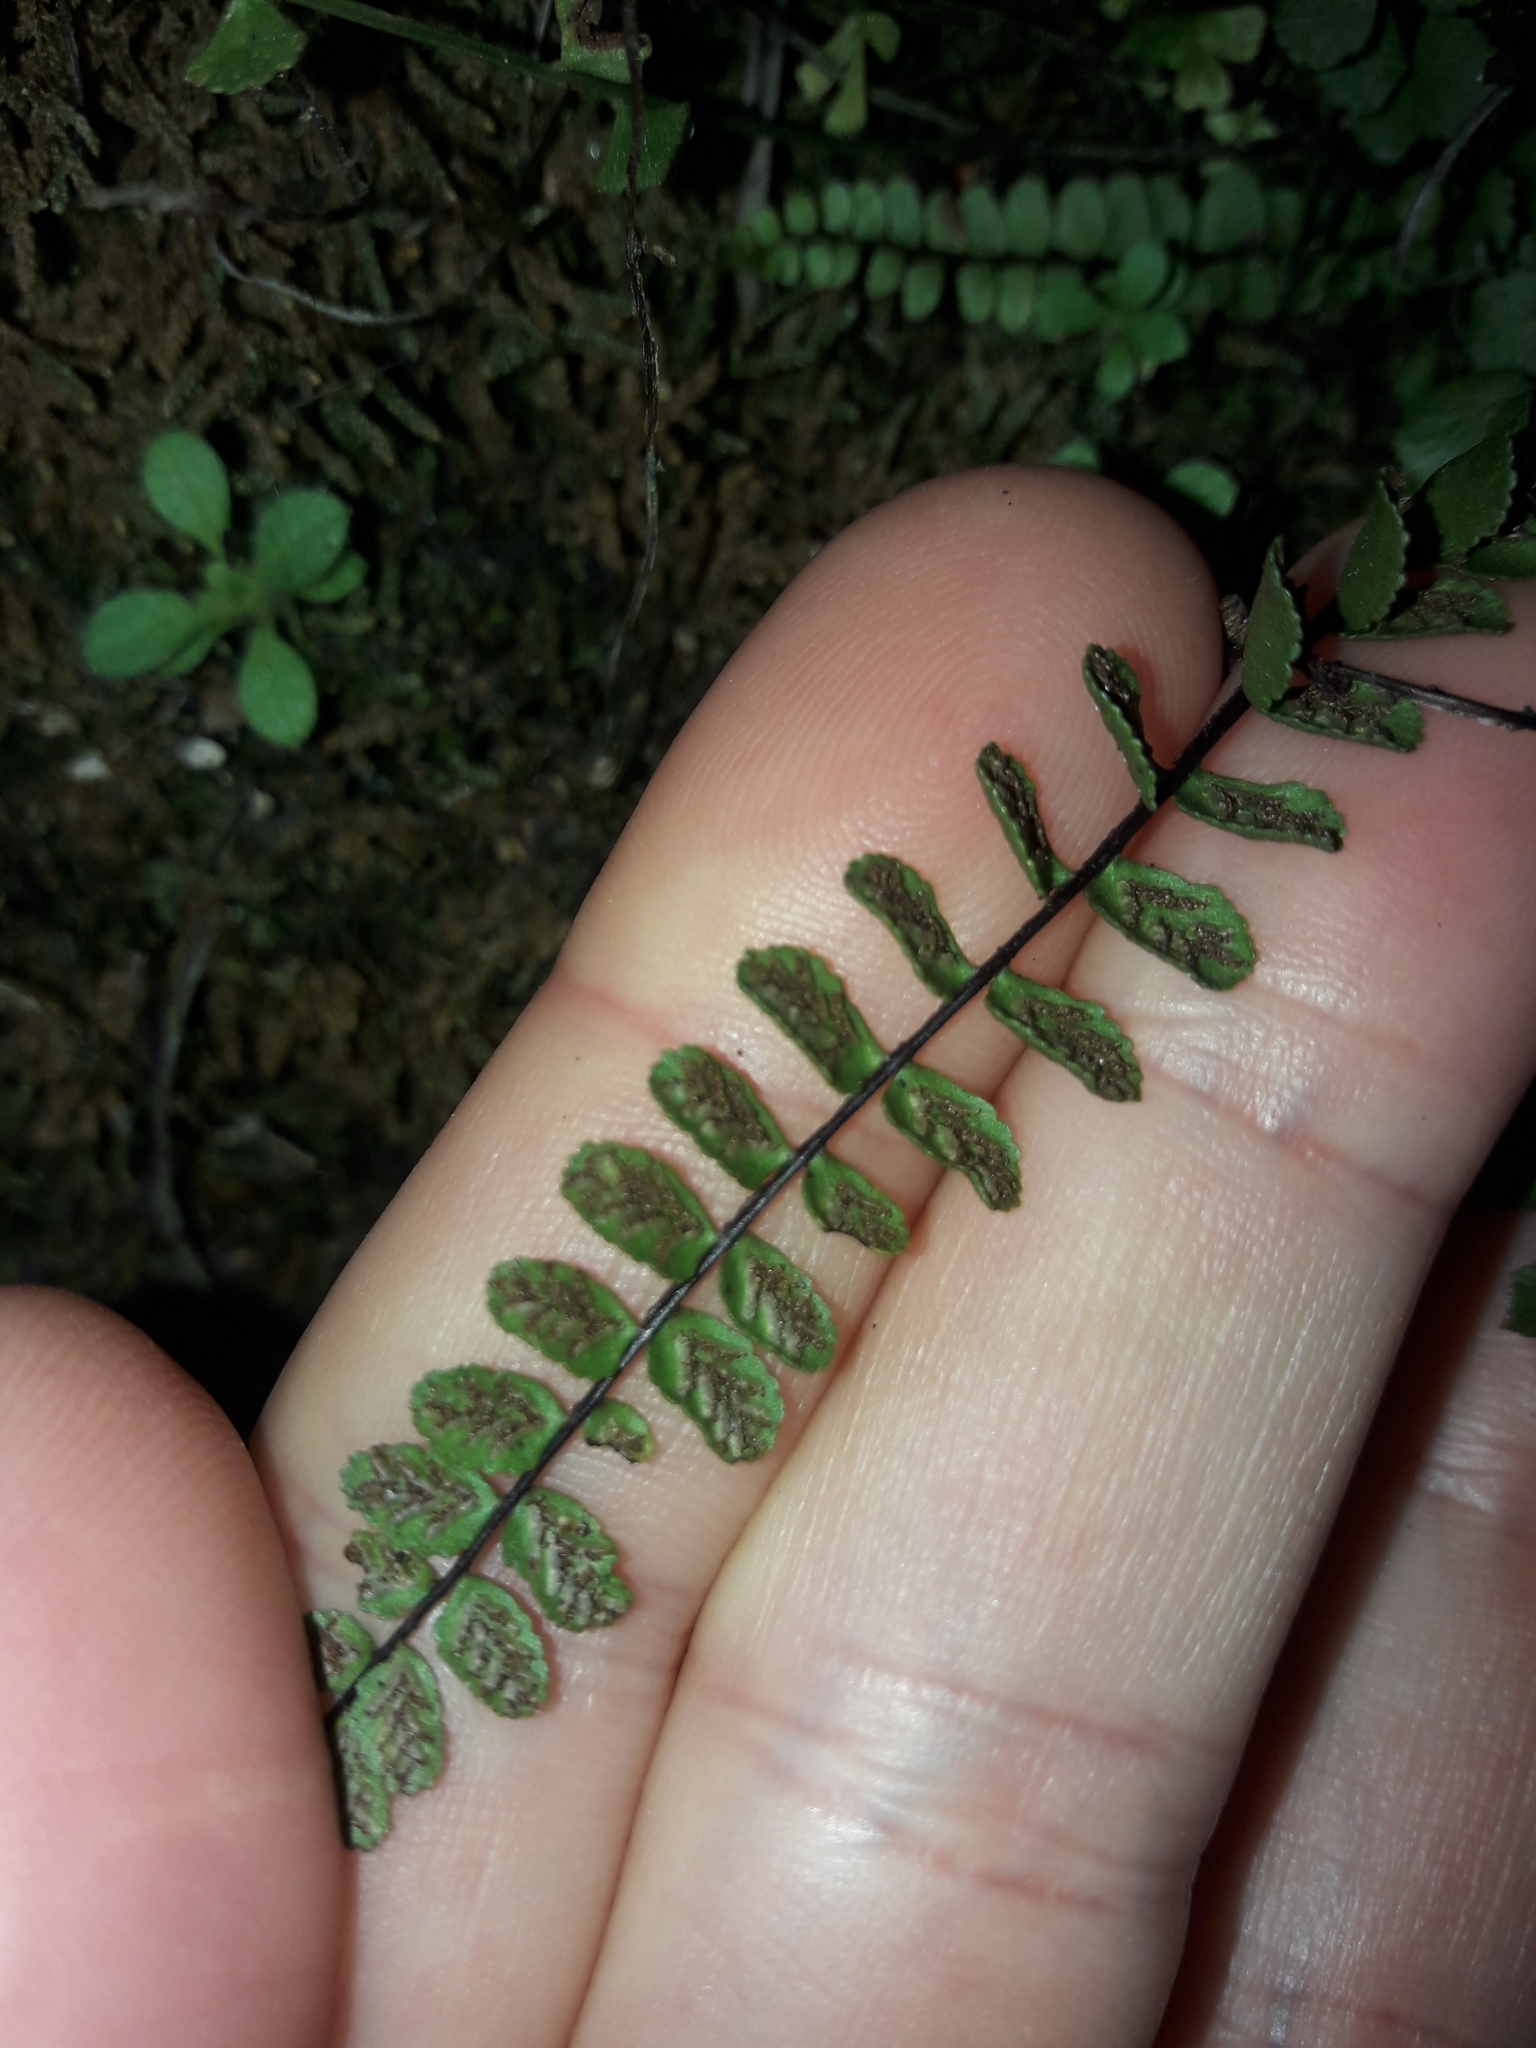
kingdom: Plantae
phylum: Tracheophyta
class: Polypodiopsida
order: Polypodiales
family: Aspleniaceae
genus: Asplenium
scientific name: Asplenium trichomanes
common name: Maidenhair spleenwort
